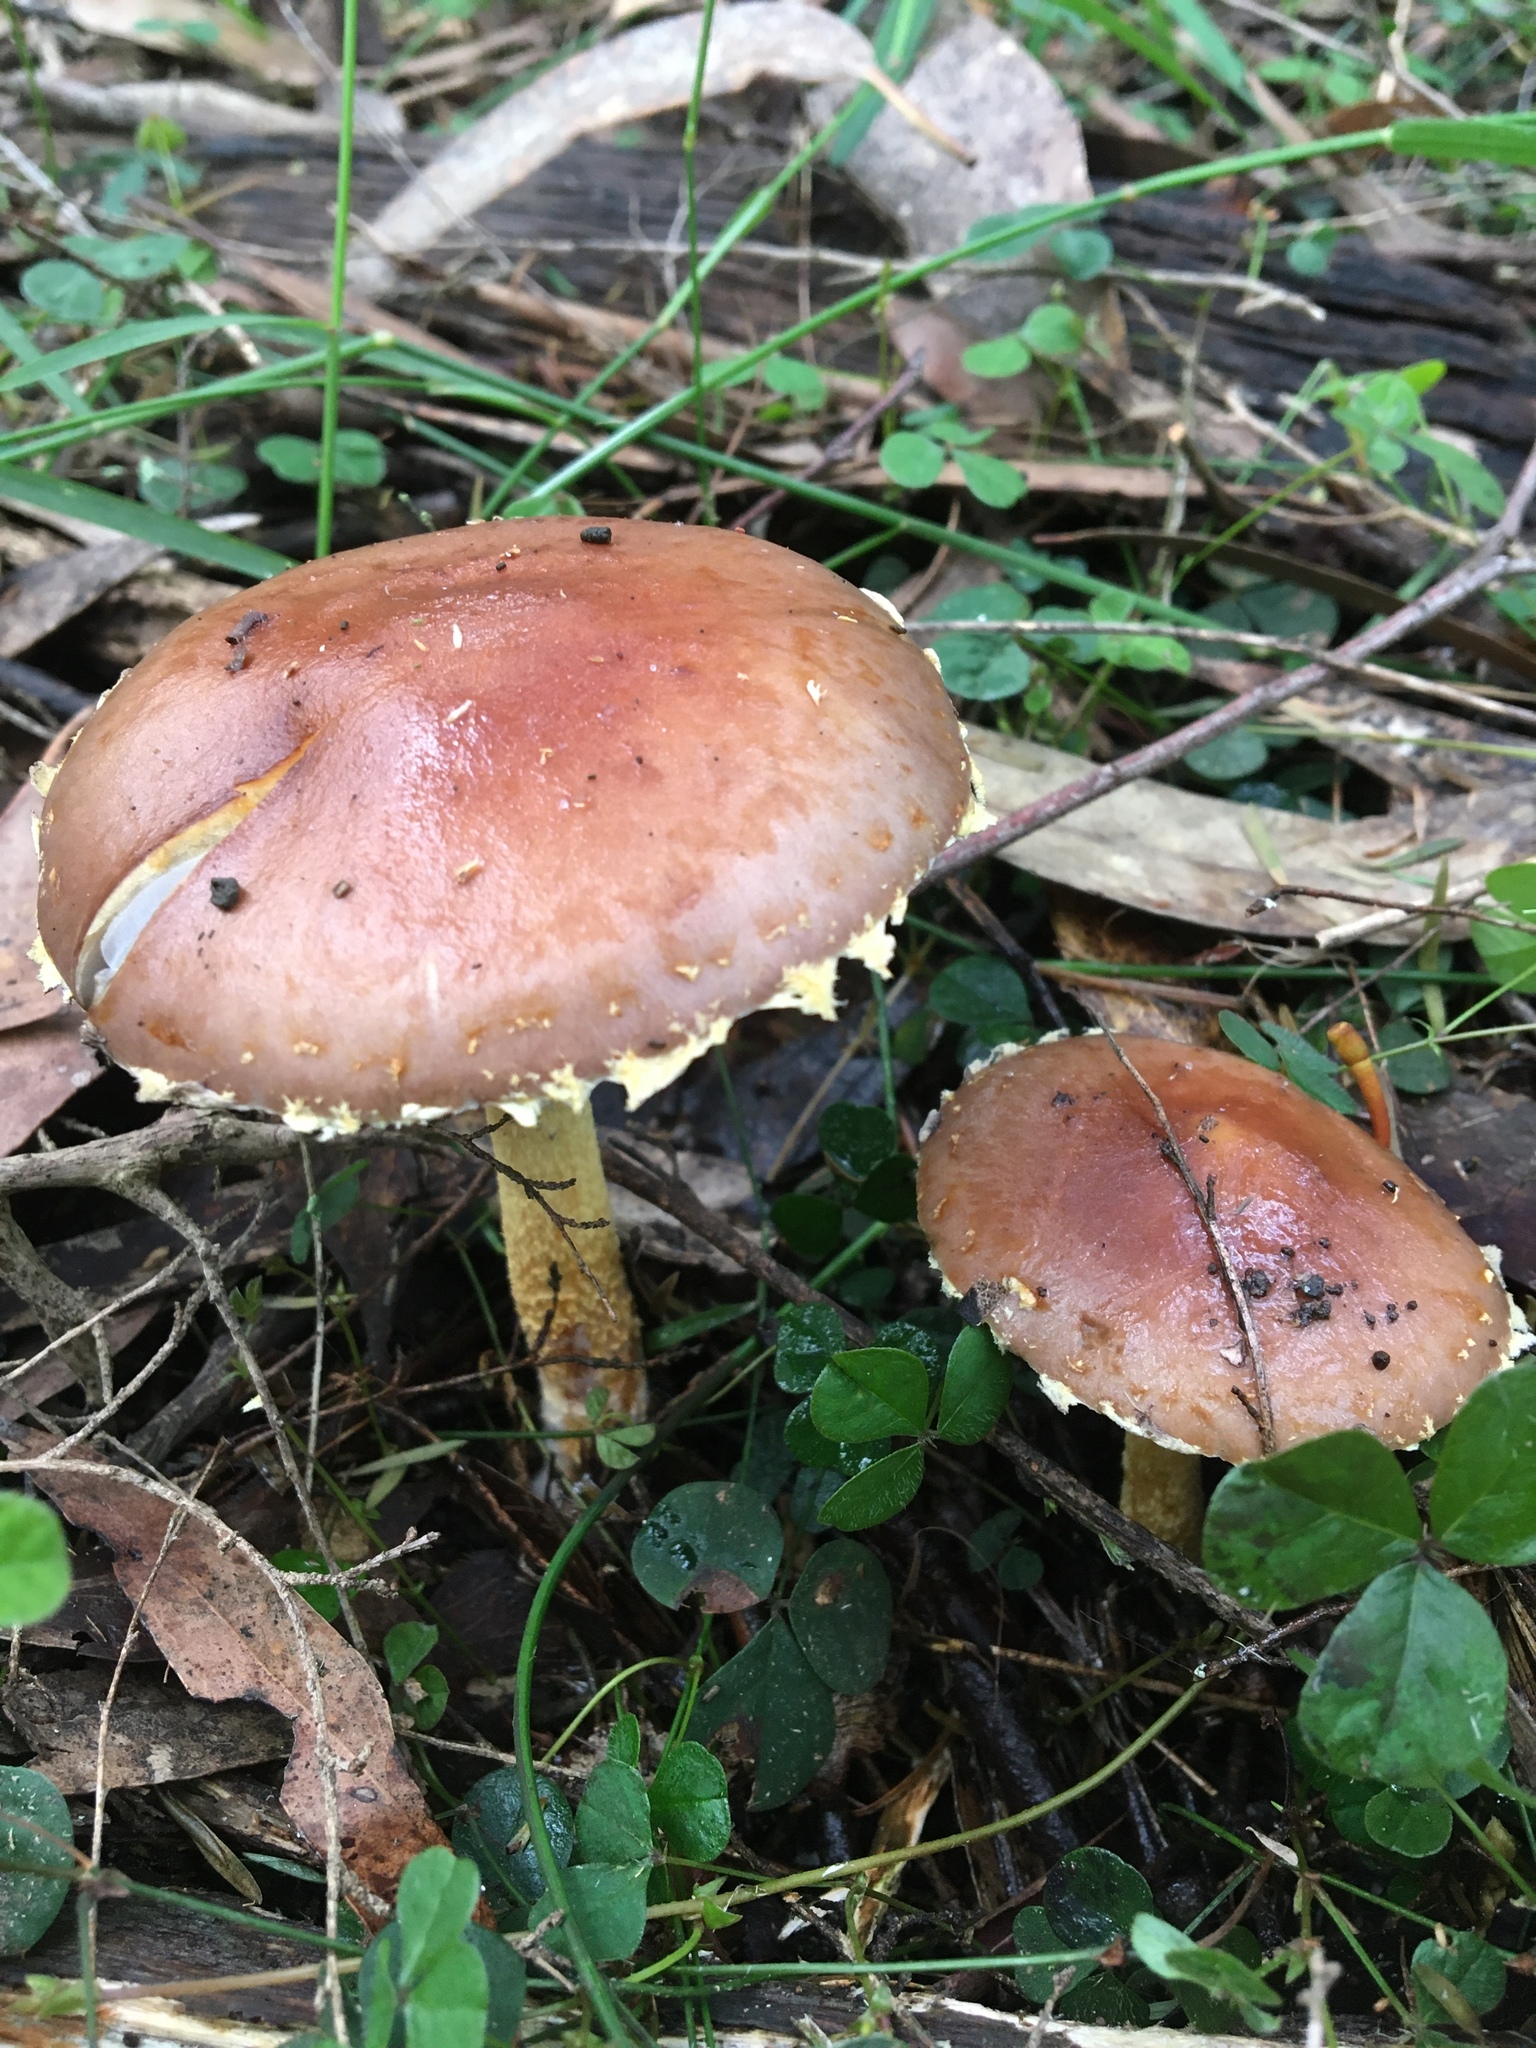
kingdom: Fungi
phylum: Basidiomycota
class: Agaricomycetes
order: Agaricales
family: Hymenogastraceae
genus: Psilocybe
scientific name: Psilocybe formosa
